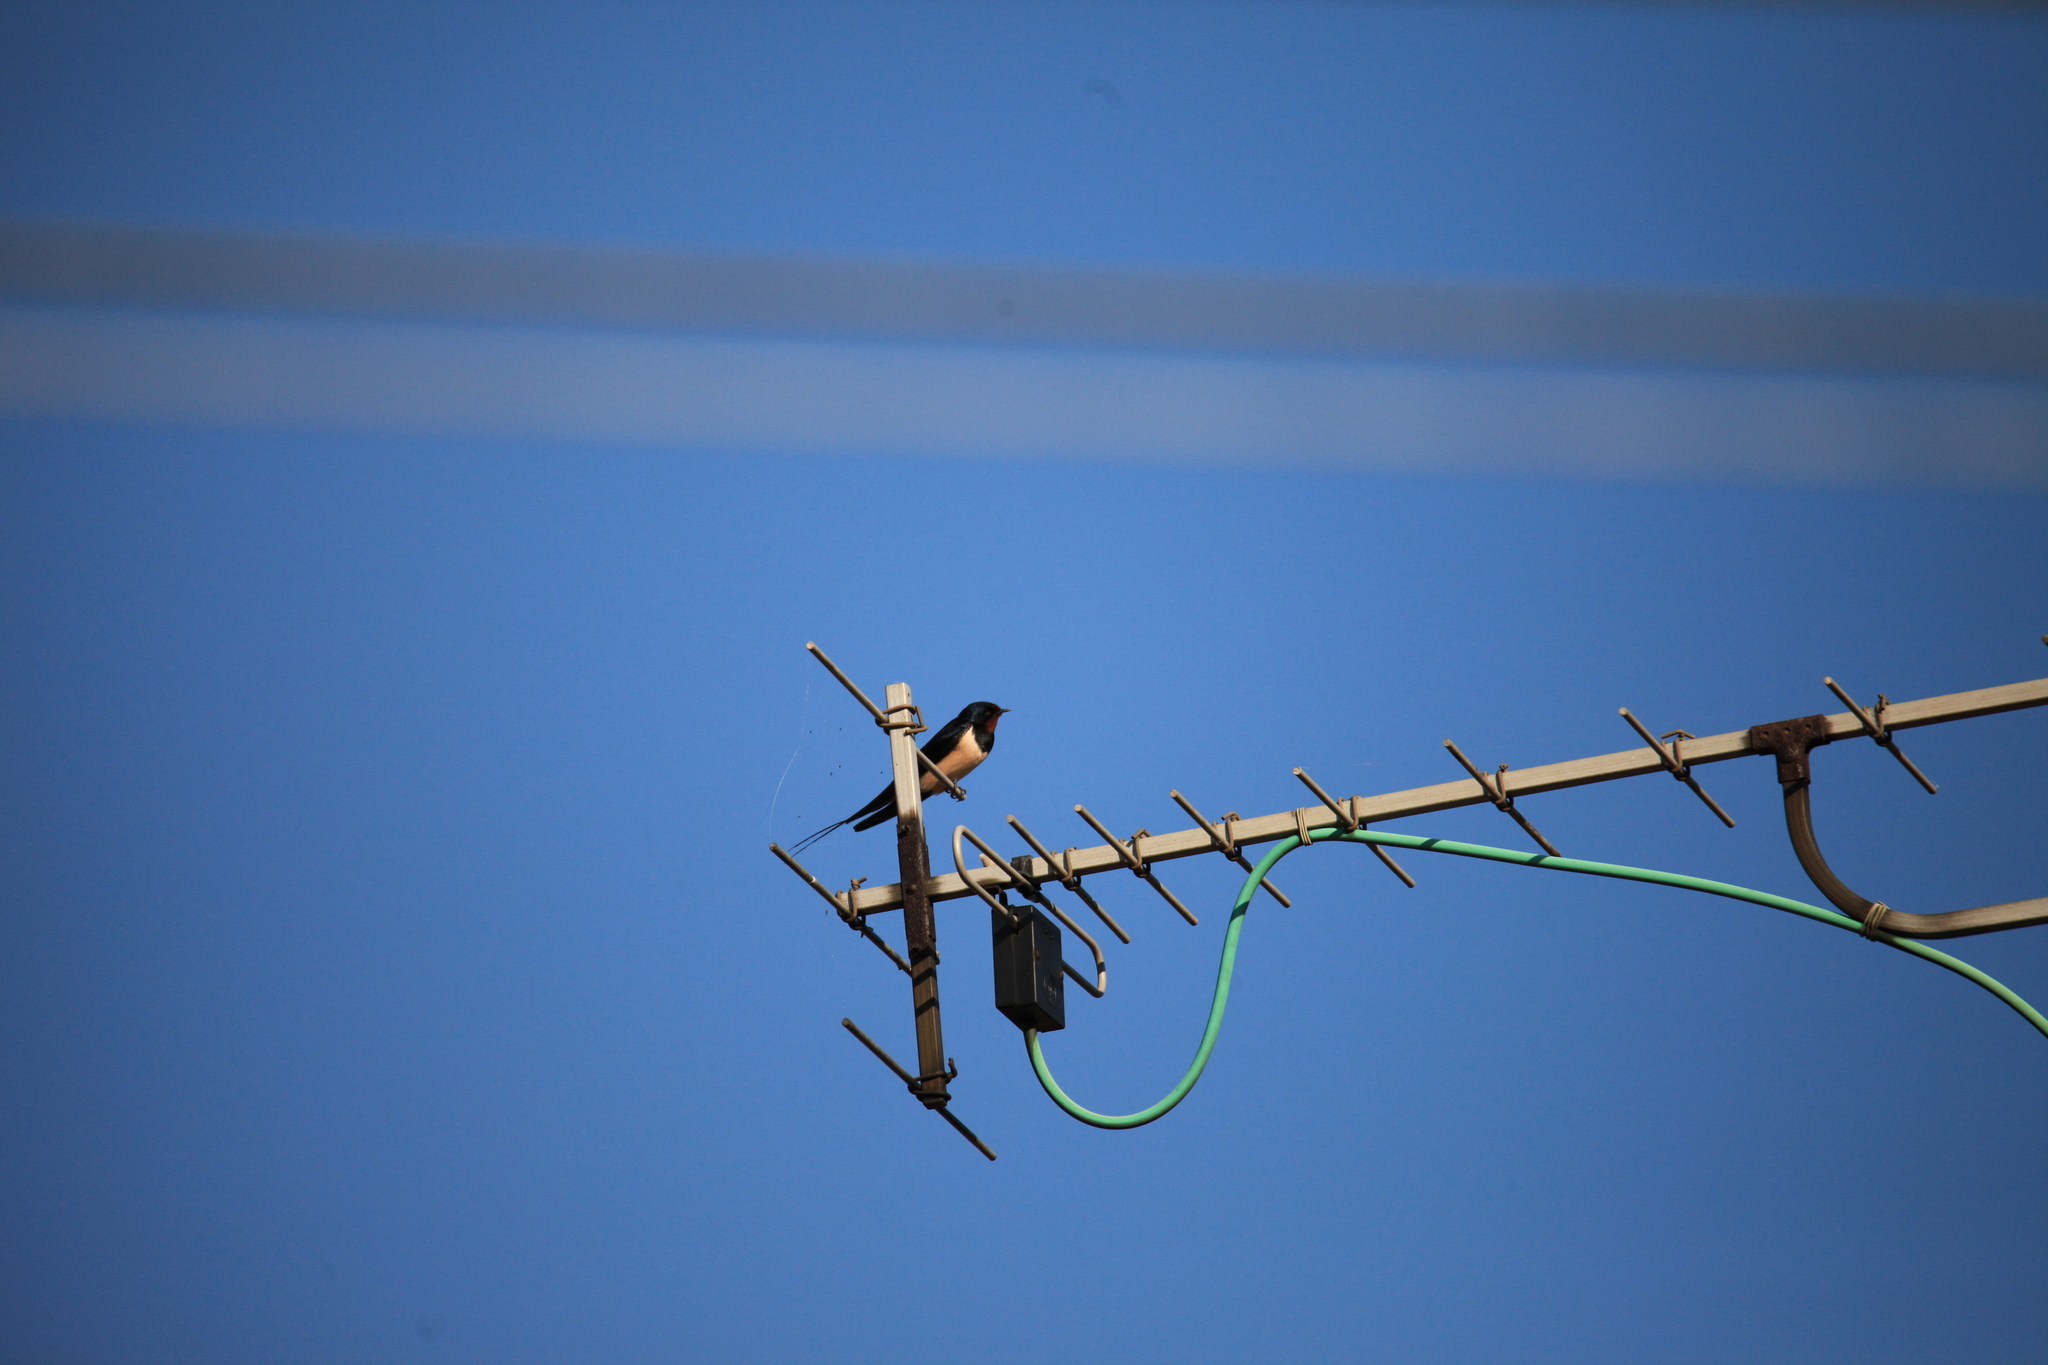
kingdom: Animalia
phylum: Chordata
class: Aves
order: Passeriformes
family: Hirundinidae
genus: Hirundo
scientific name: Hirundo rustica
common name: Barn swallow
